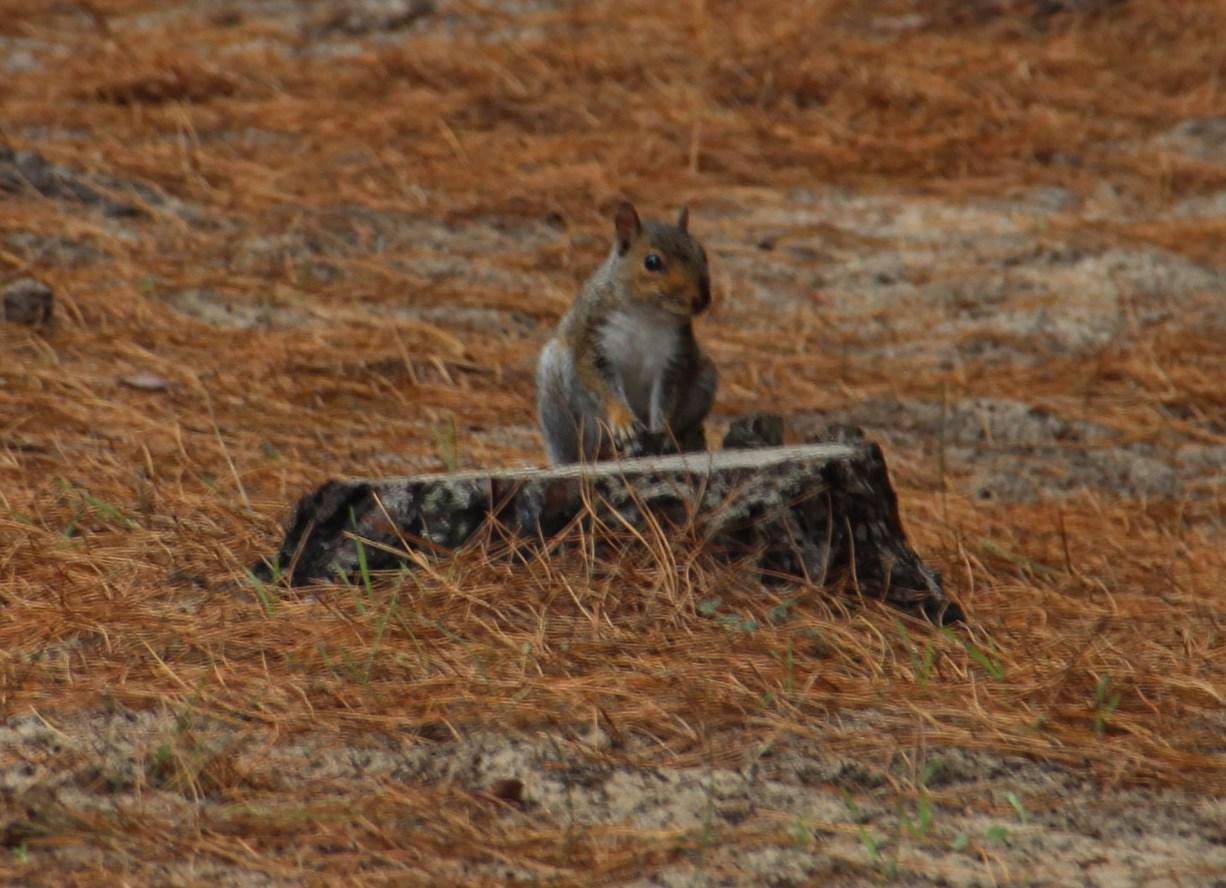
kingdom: Animalia
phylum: Chordata
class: Mammalia
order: Rodentia
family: Sciuridae
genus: Sciurus
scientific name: Sciurus carolinensis
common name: Eastern gray squirrel
